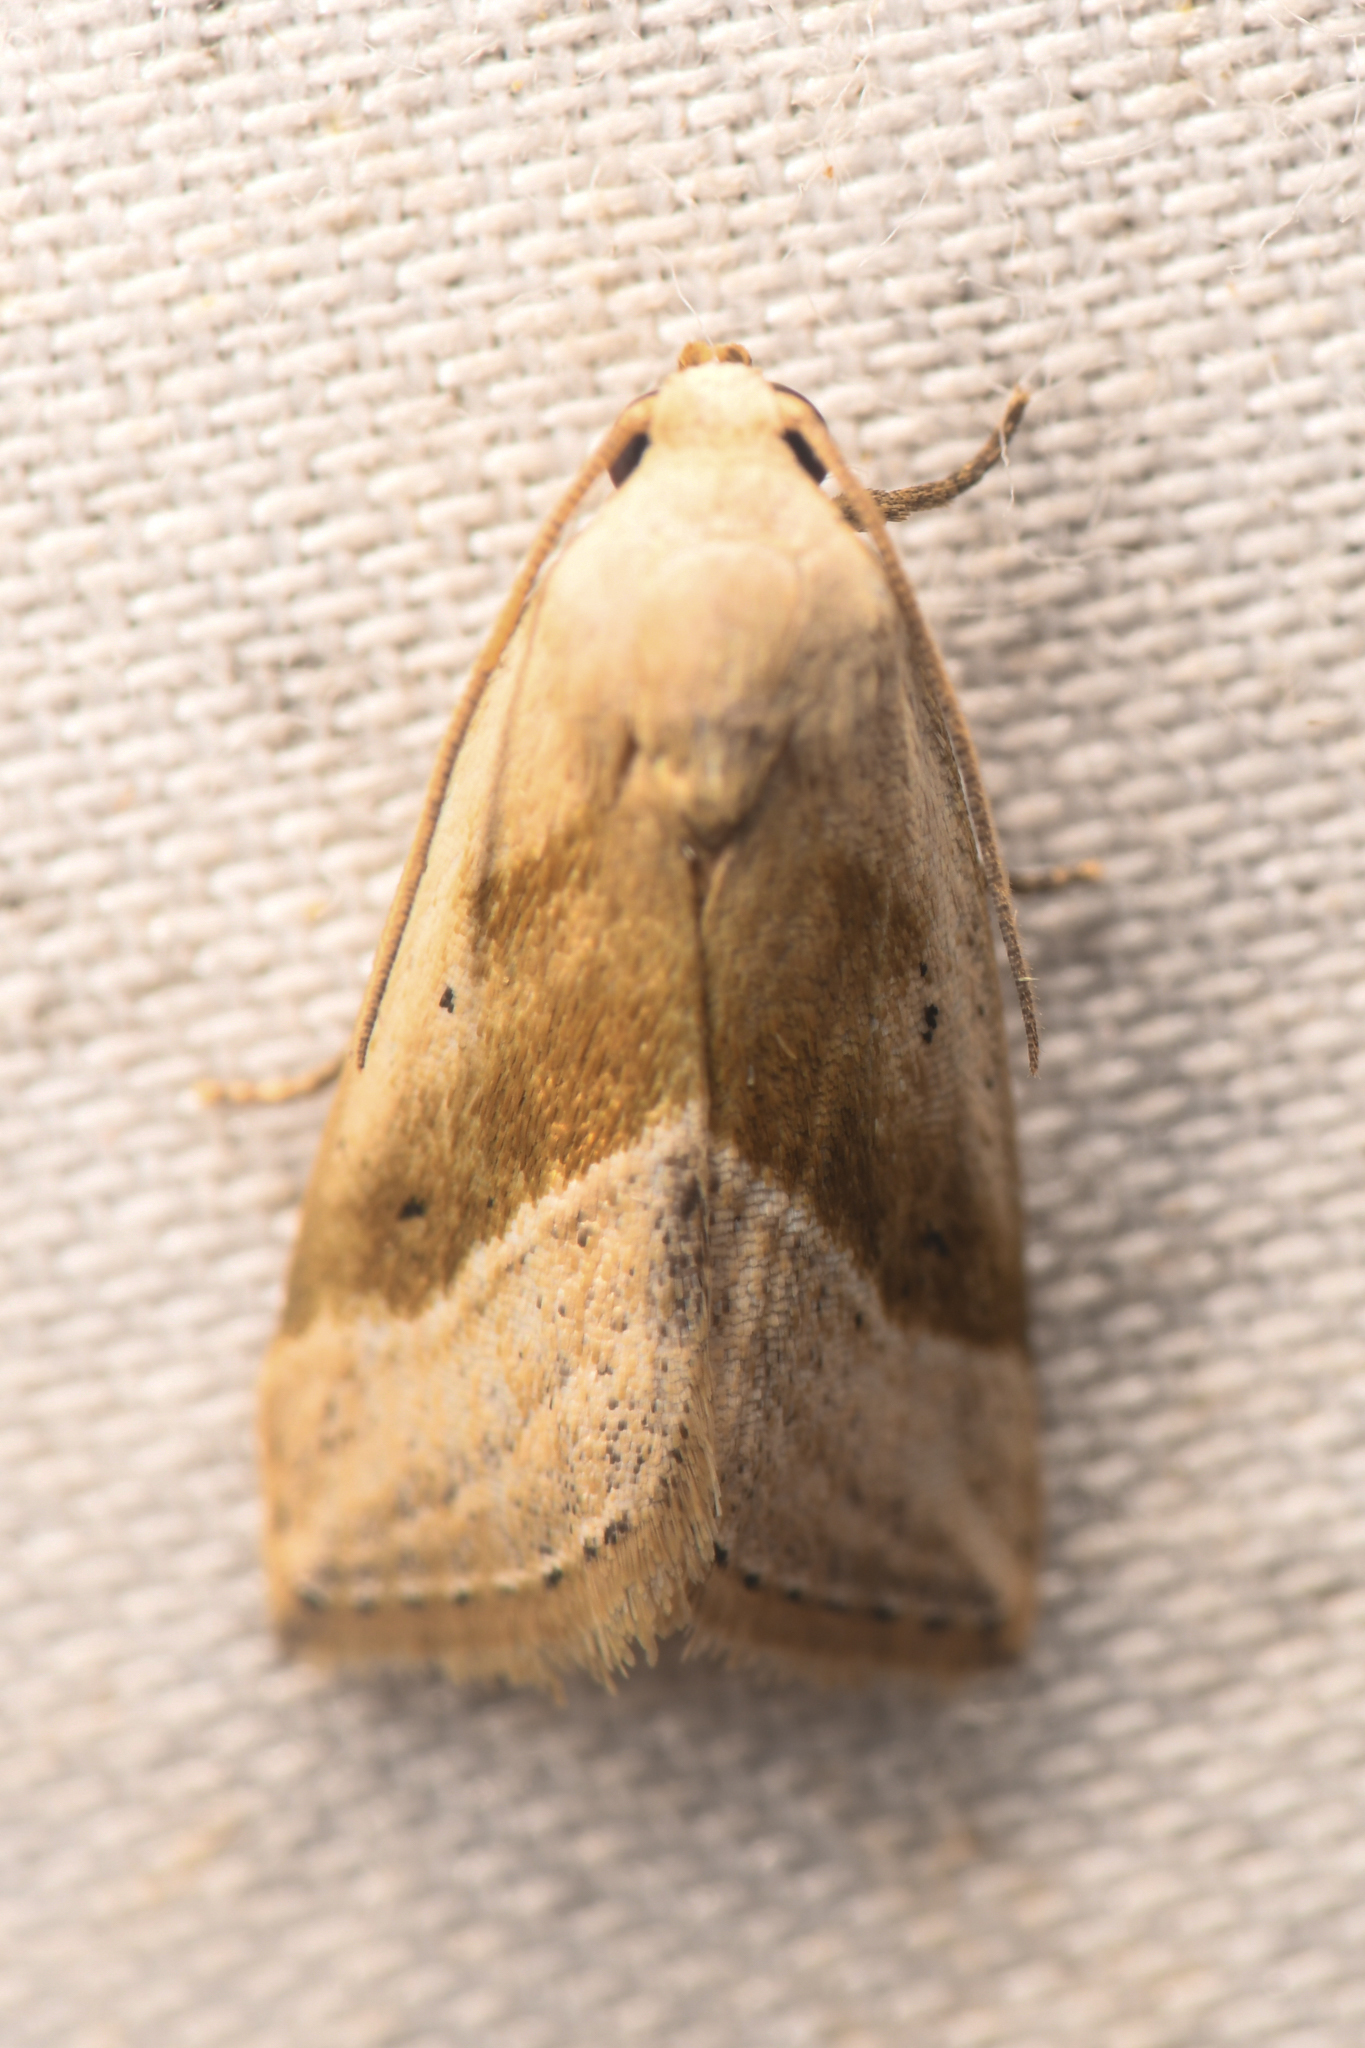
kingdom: Animalia
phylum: Arthropoda
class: Insecta
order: Lepidoptera
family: Noctuidae
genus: Micrathetis
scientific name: Micrathetis dasarada
